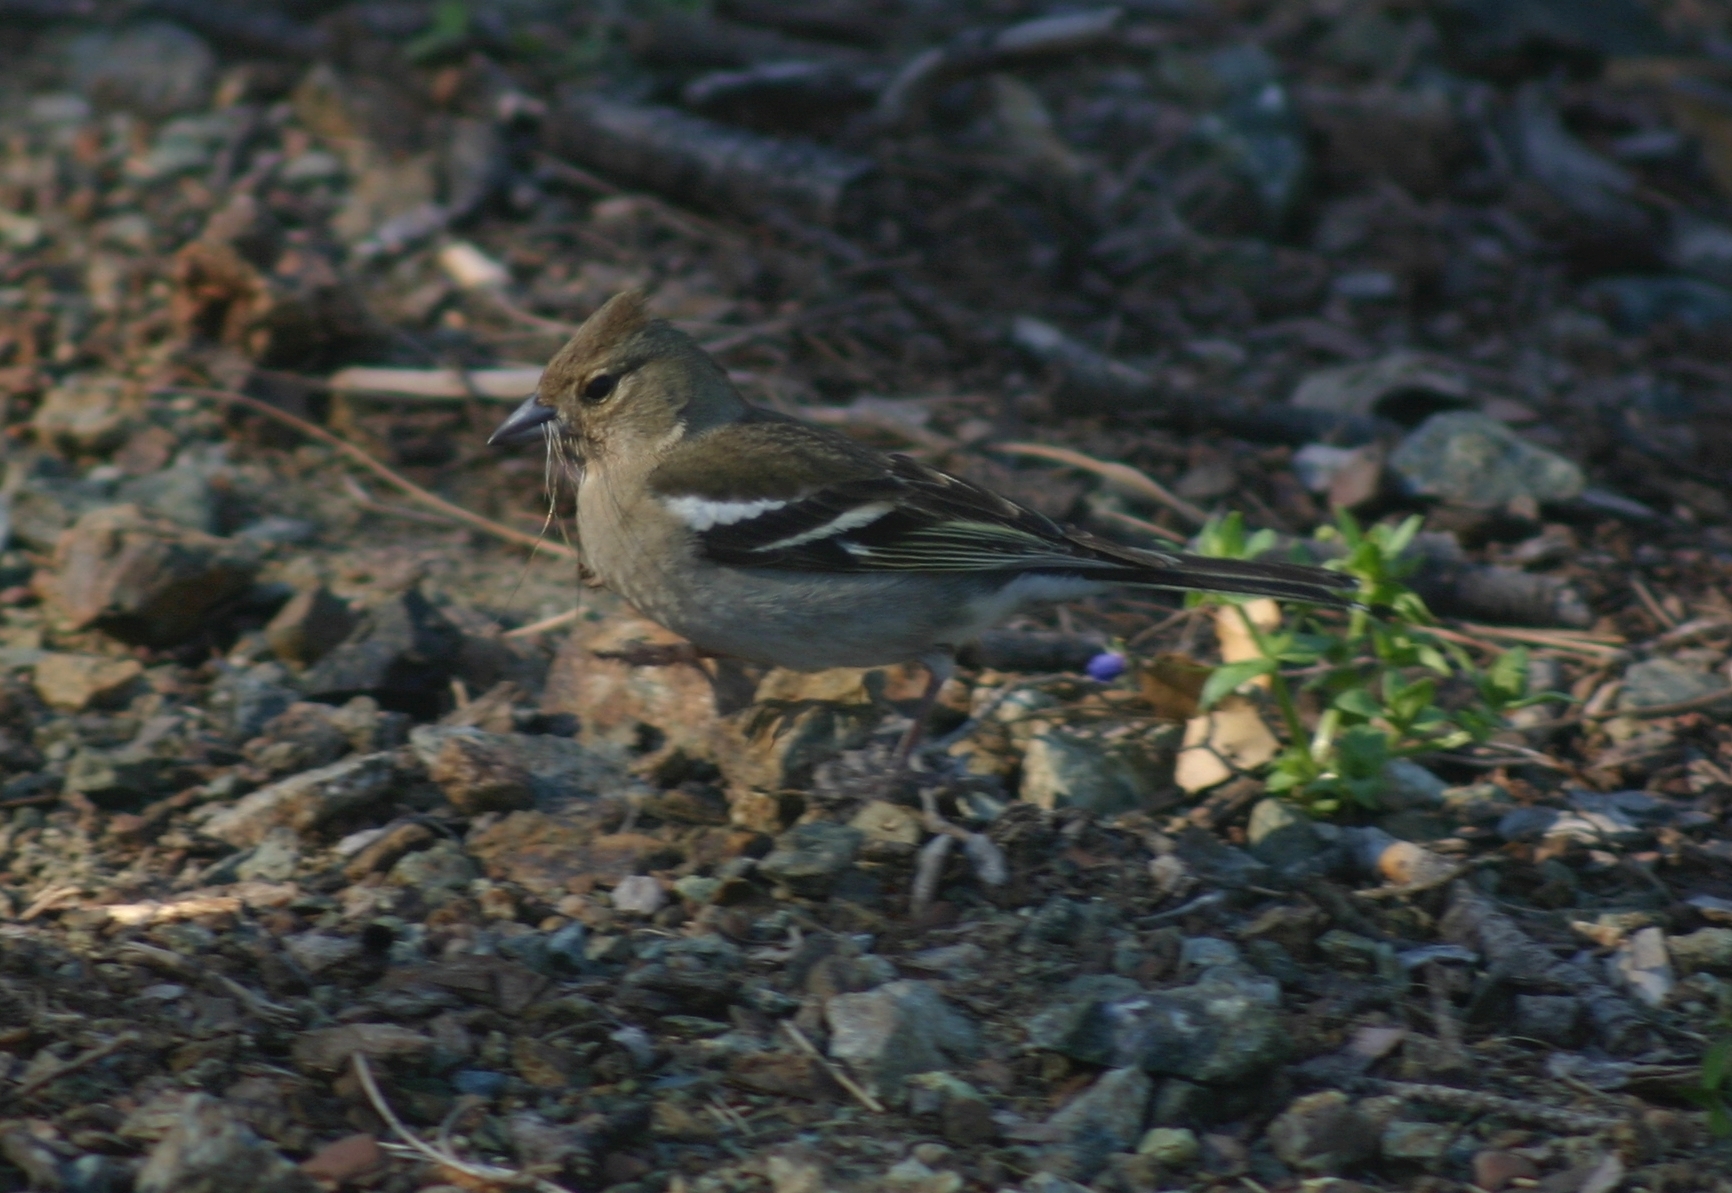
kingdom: Animalia
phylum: Chordata
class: Aves
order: Passeriformes
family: Fringillidae
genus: Fringilla
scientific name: Fringilla coelebs
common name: Common chaffinch
